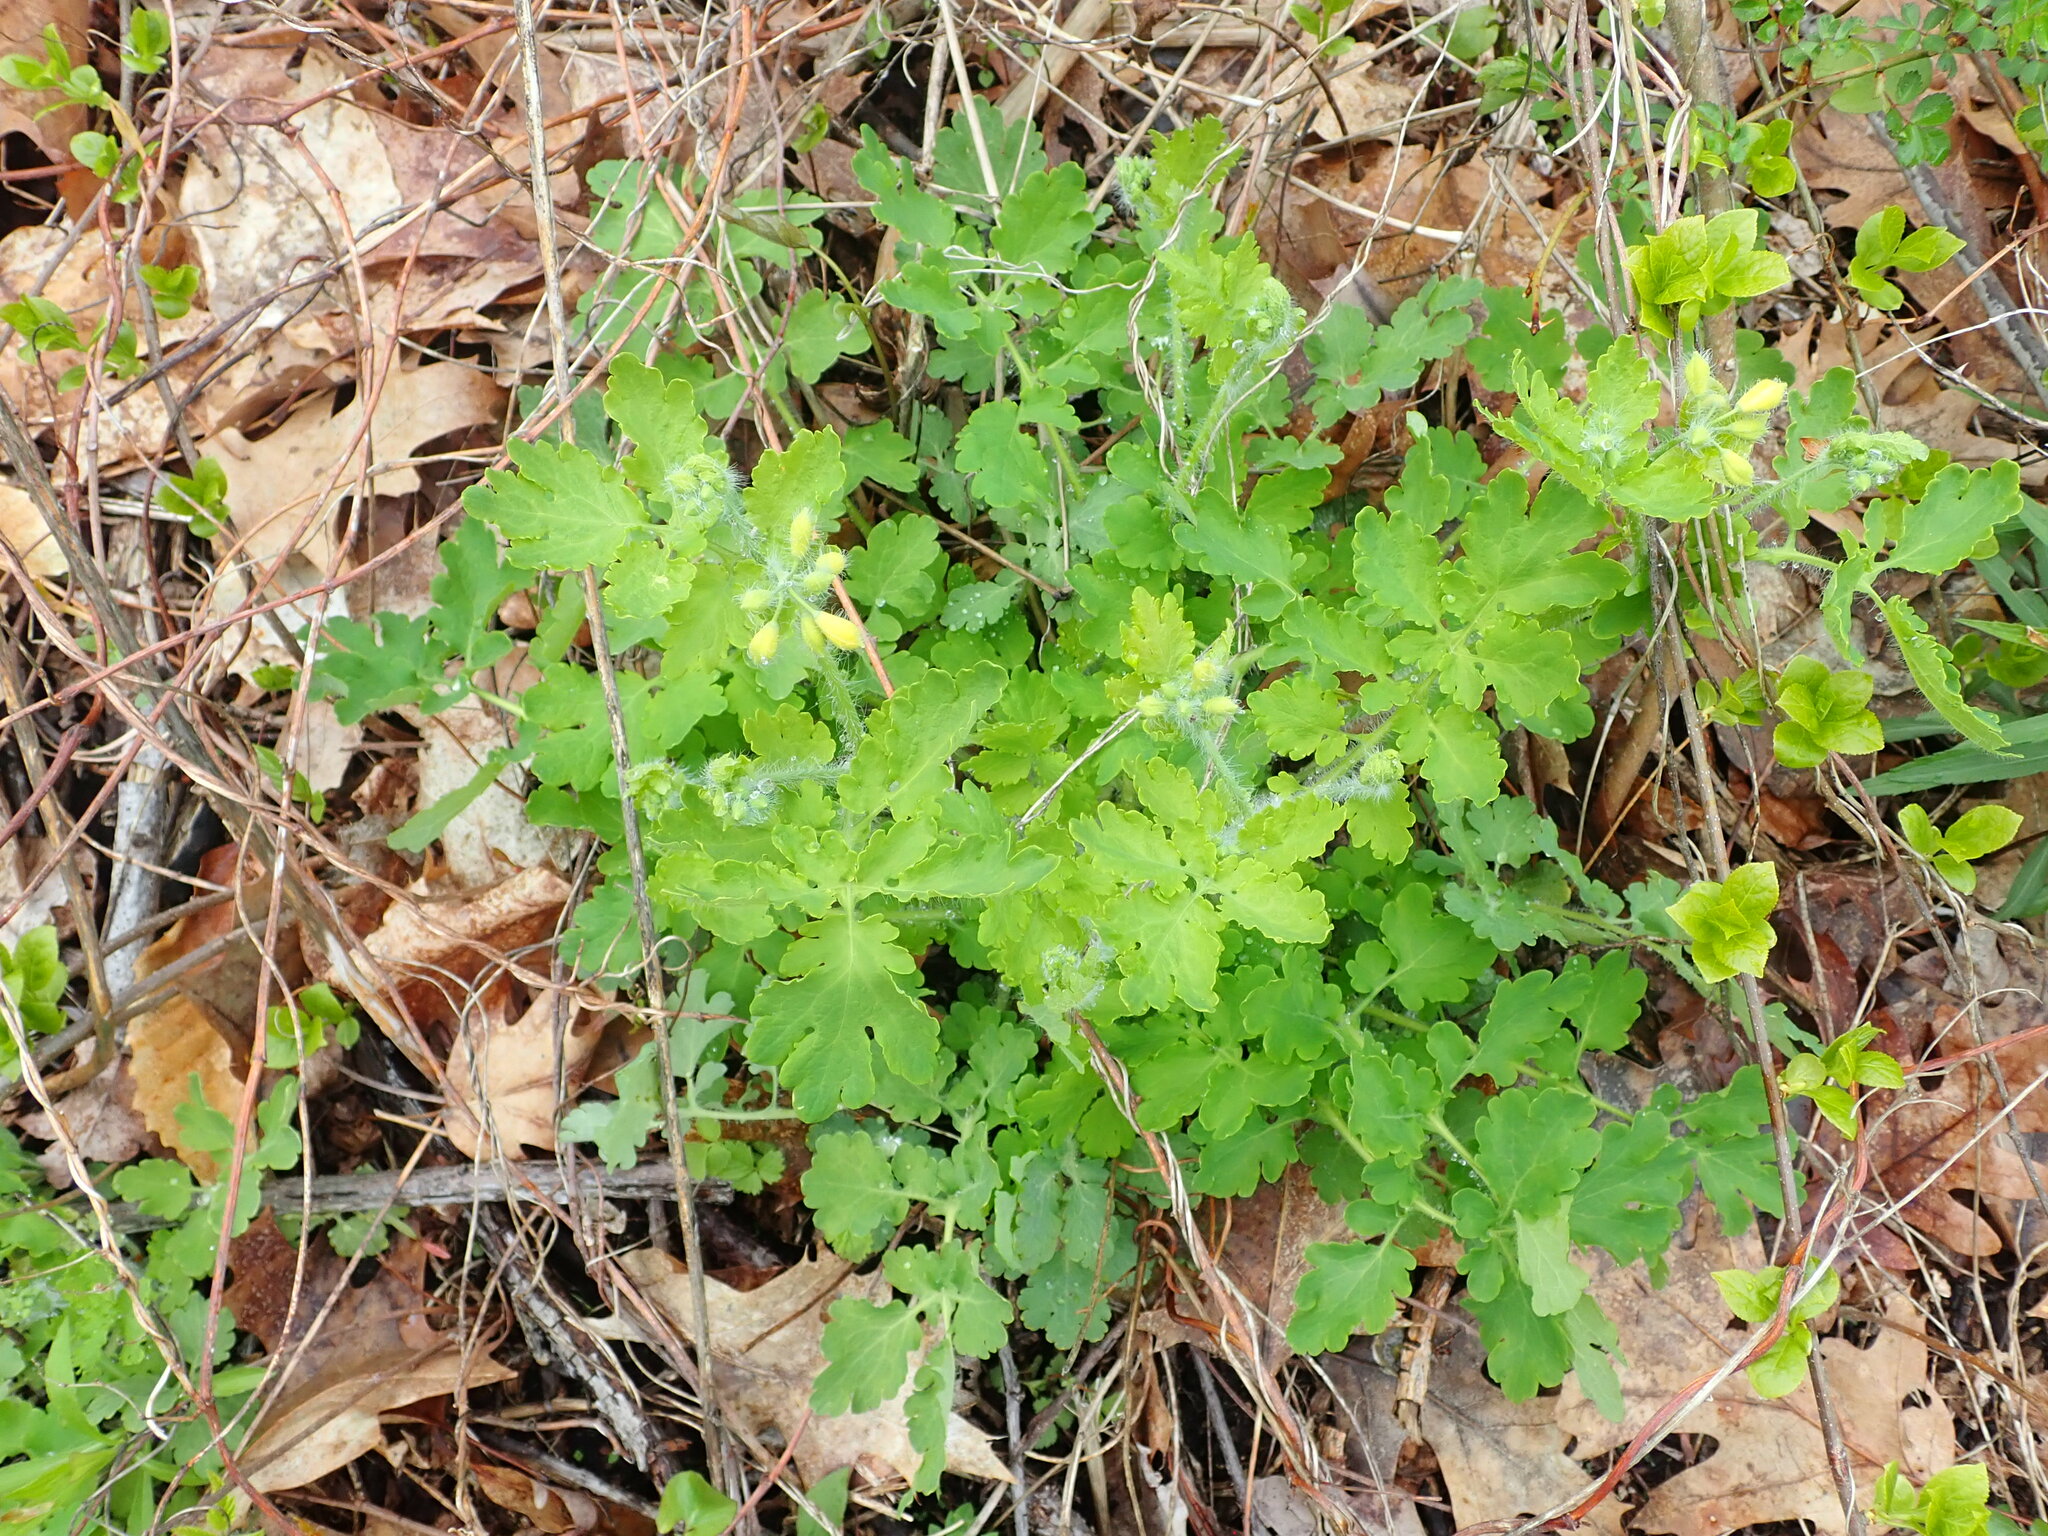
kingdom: Plantae
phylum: Tracheophyta
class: Magnoliopsida
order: Ranunculales
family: Papaveraceae
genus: Chelidonium
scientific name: Chelidonium majus
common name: Greater celandine
